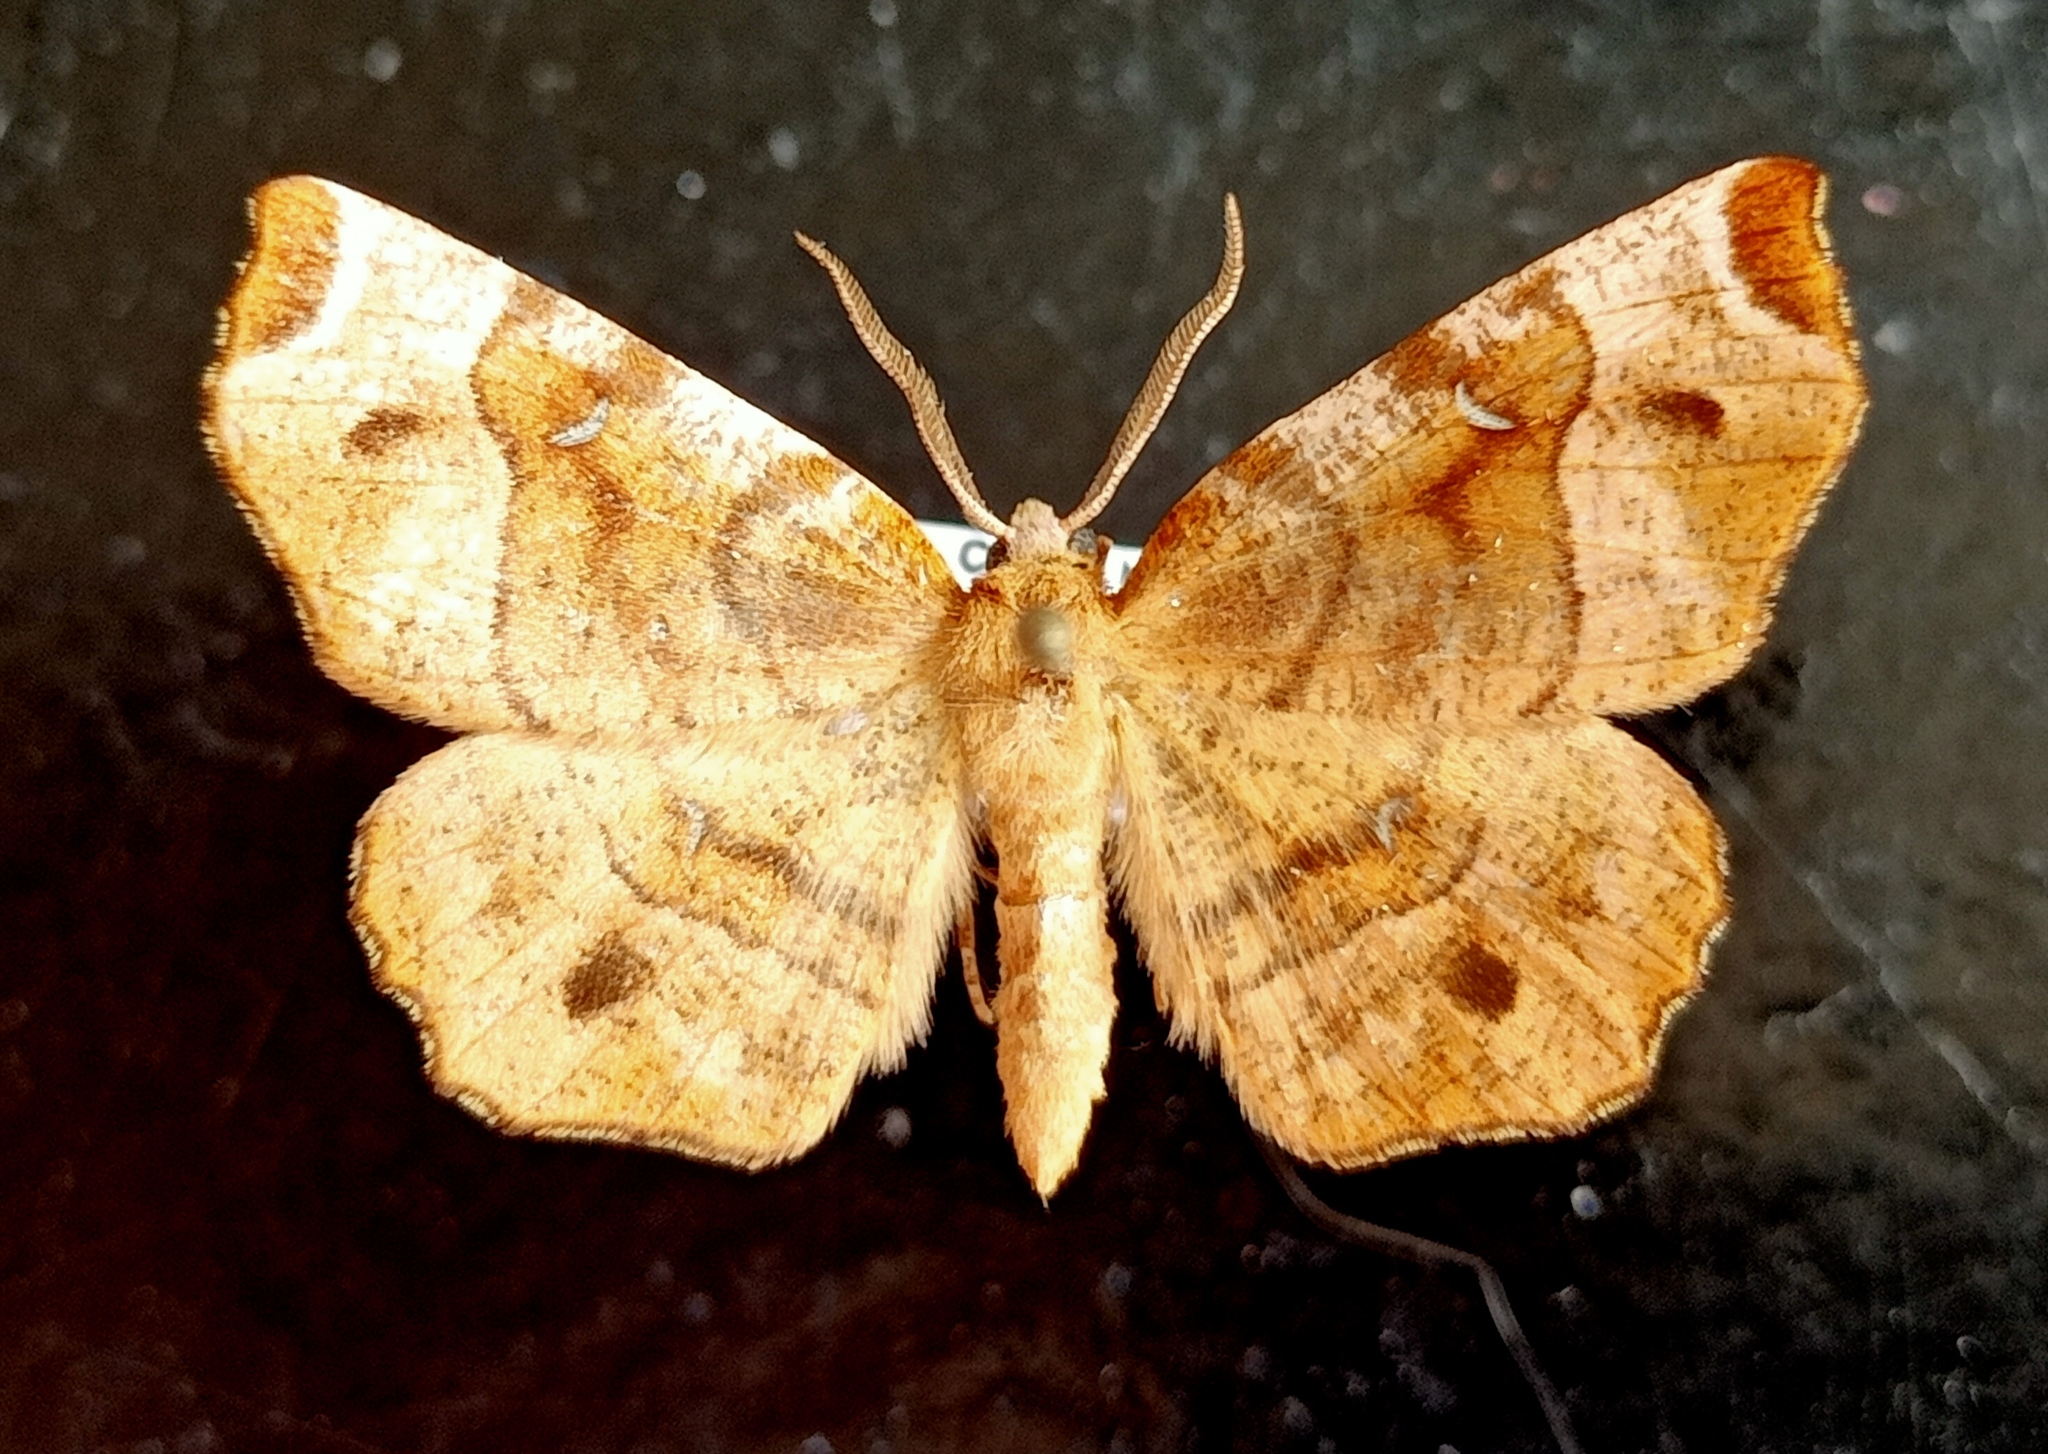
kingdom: Animalia
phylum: Arthropoda
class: Insecta
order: Lepidoptera
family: Geometridae
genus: Selenia
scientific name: Selenia tetralunaria
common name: Purple thorn
